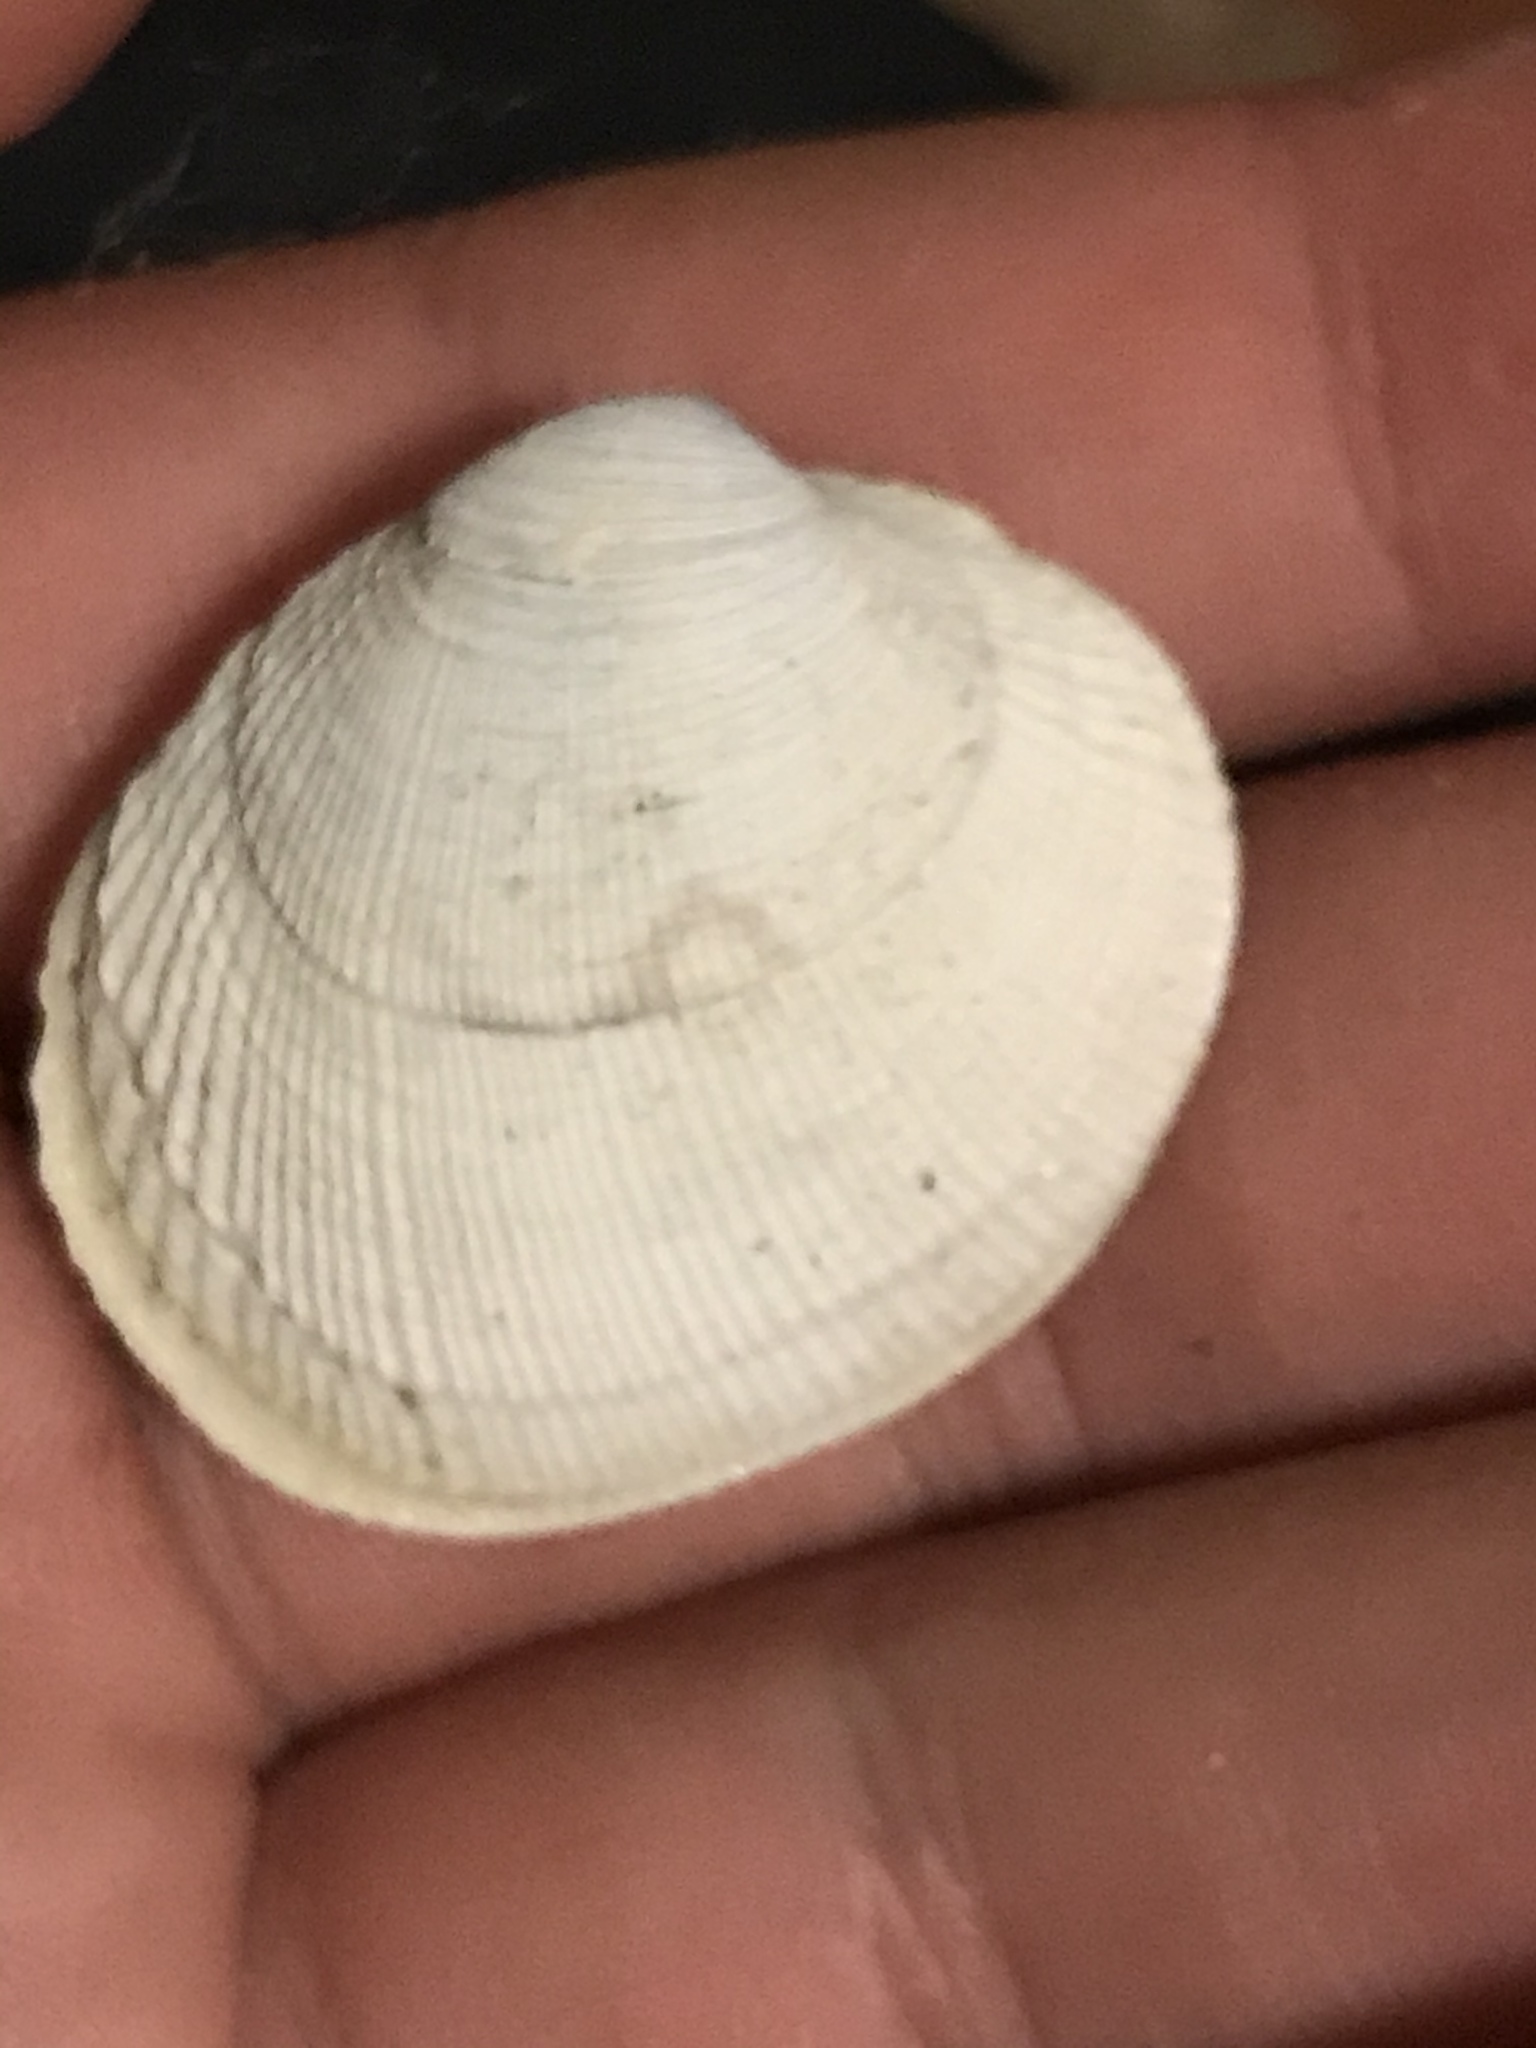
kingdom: Animalia
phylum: Mollusca
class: Bivalvia
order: Venerida
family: Veneridae
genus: Leukoma
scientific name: Leukoma staminea
